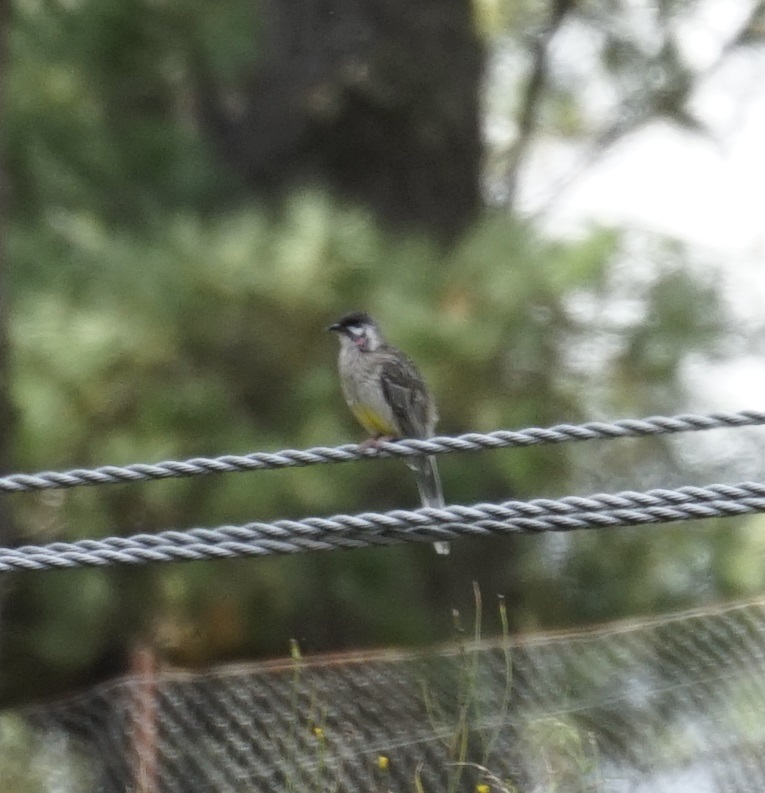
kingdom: Animalia
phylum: Chordata
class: Aves
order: Passeriformes
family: Meliphagidae
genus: Anthochaera
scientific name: Anthochaera carunculata
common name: Red wattlebird
